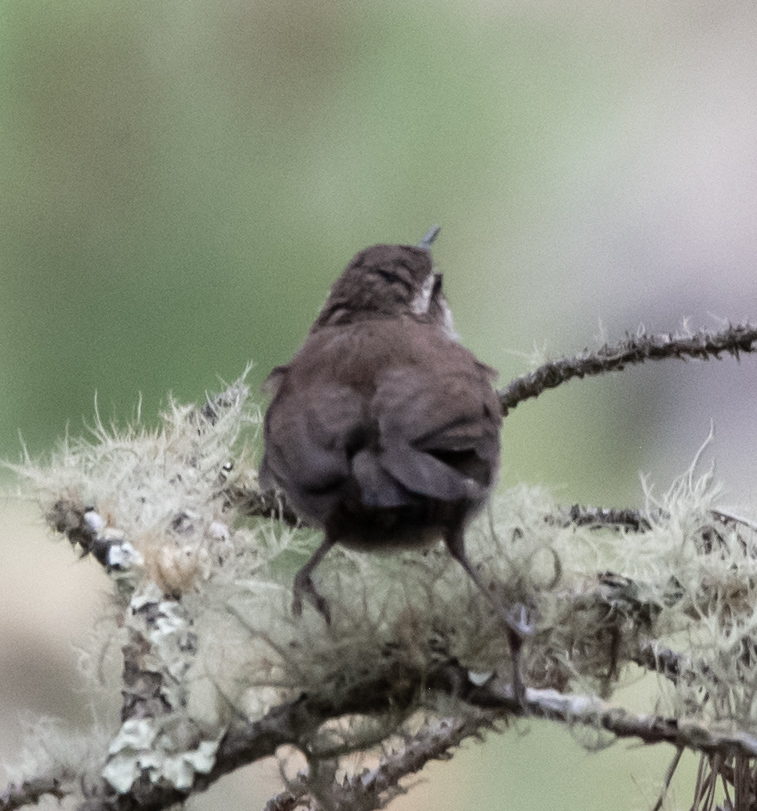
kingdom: Animalia
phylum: Chordata
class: Aves
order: Passeriformes
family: Troglodytidae
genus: Thryomanes
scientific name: Thryomanes bewickii
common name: Bewick's wren
